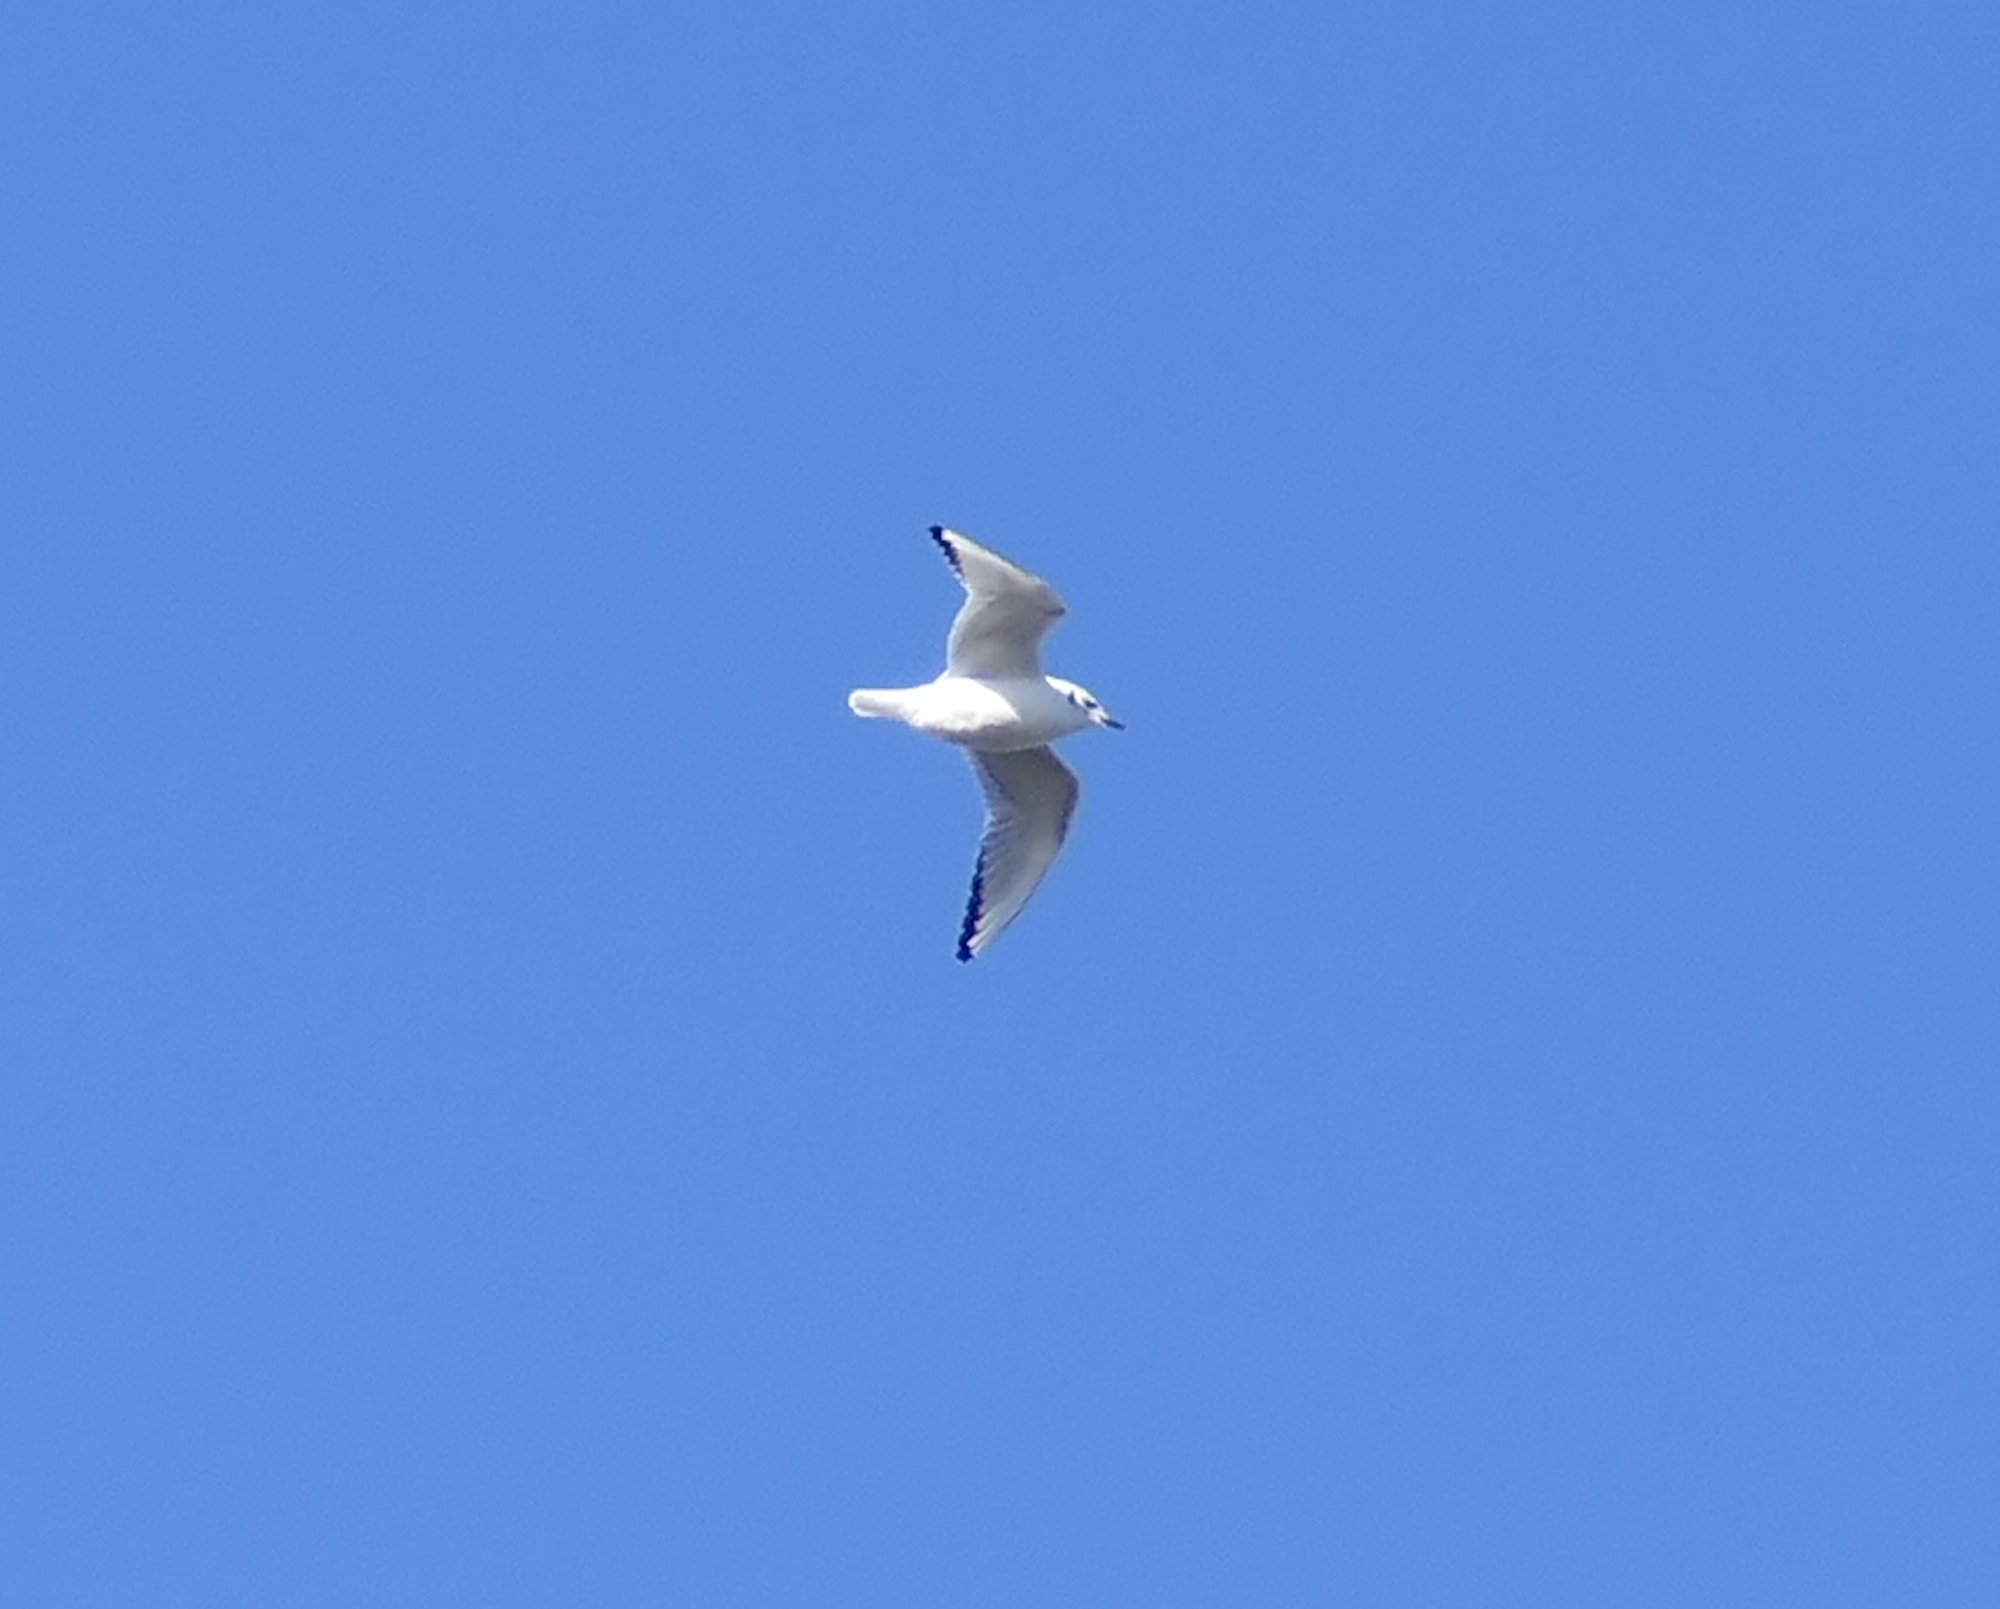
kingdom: Animalia
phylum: Chordata
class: Aves
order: Charadriiformes
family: Laridae
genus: Chroicocephalus
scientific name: Chroicocephalus philadelphia
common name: Bonaparte's gull
